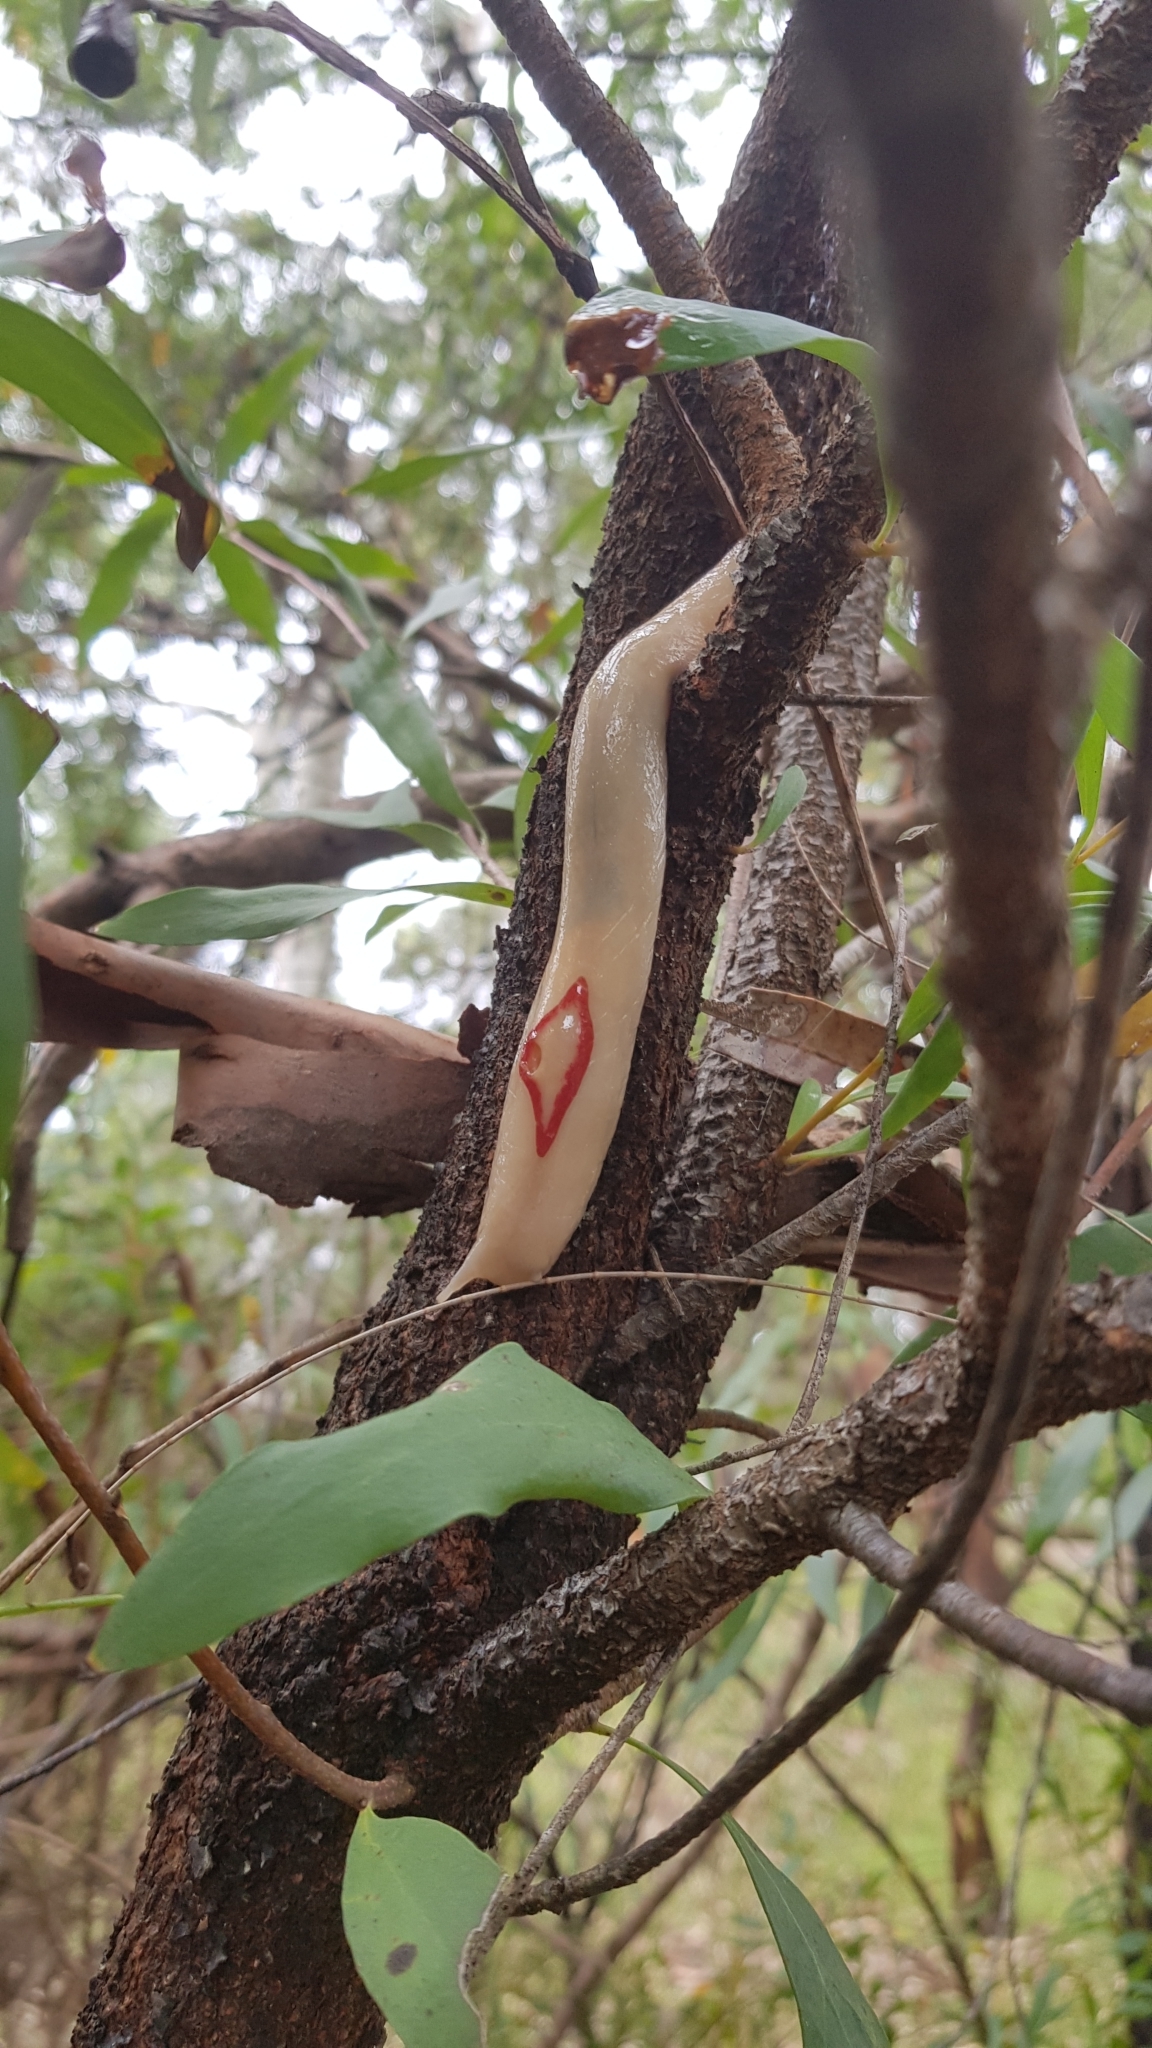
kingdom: Animalia
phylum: Mollusca
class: Gastropoda
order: Stylommatophora
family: Athoracophoridae
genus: Triboniophorus
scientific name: Triboniophorus graeffei
